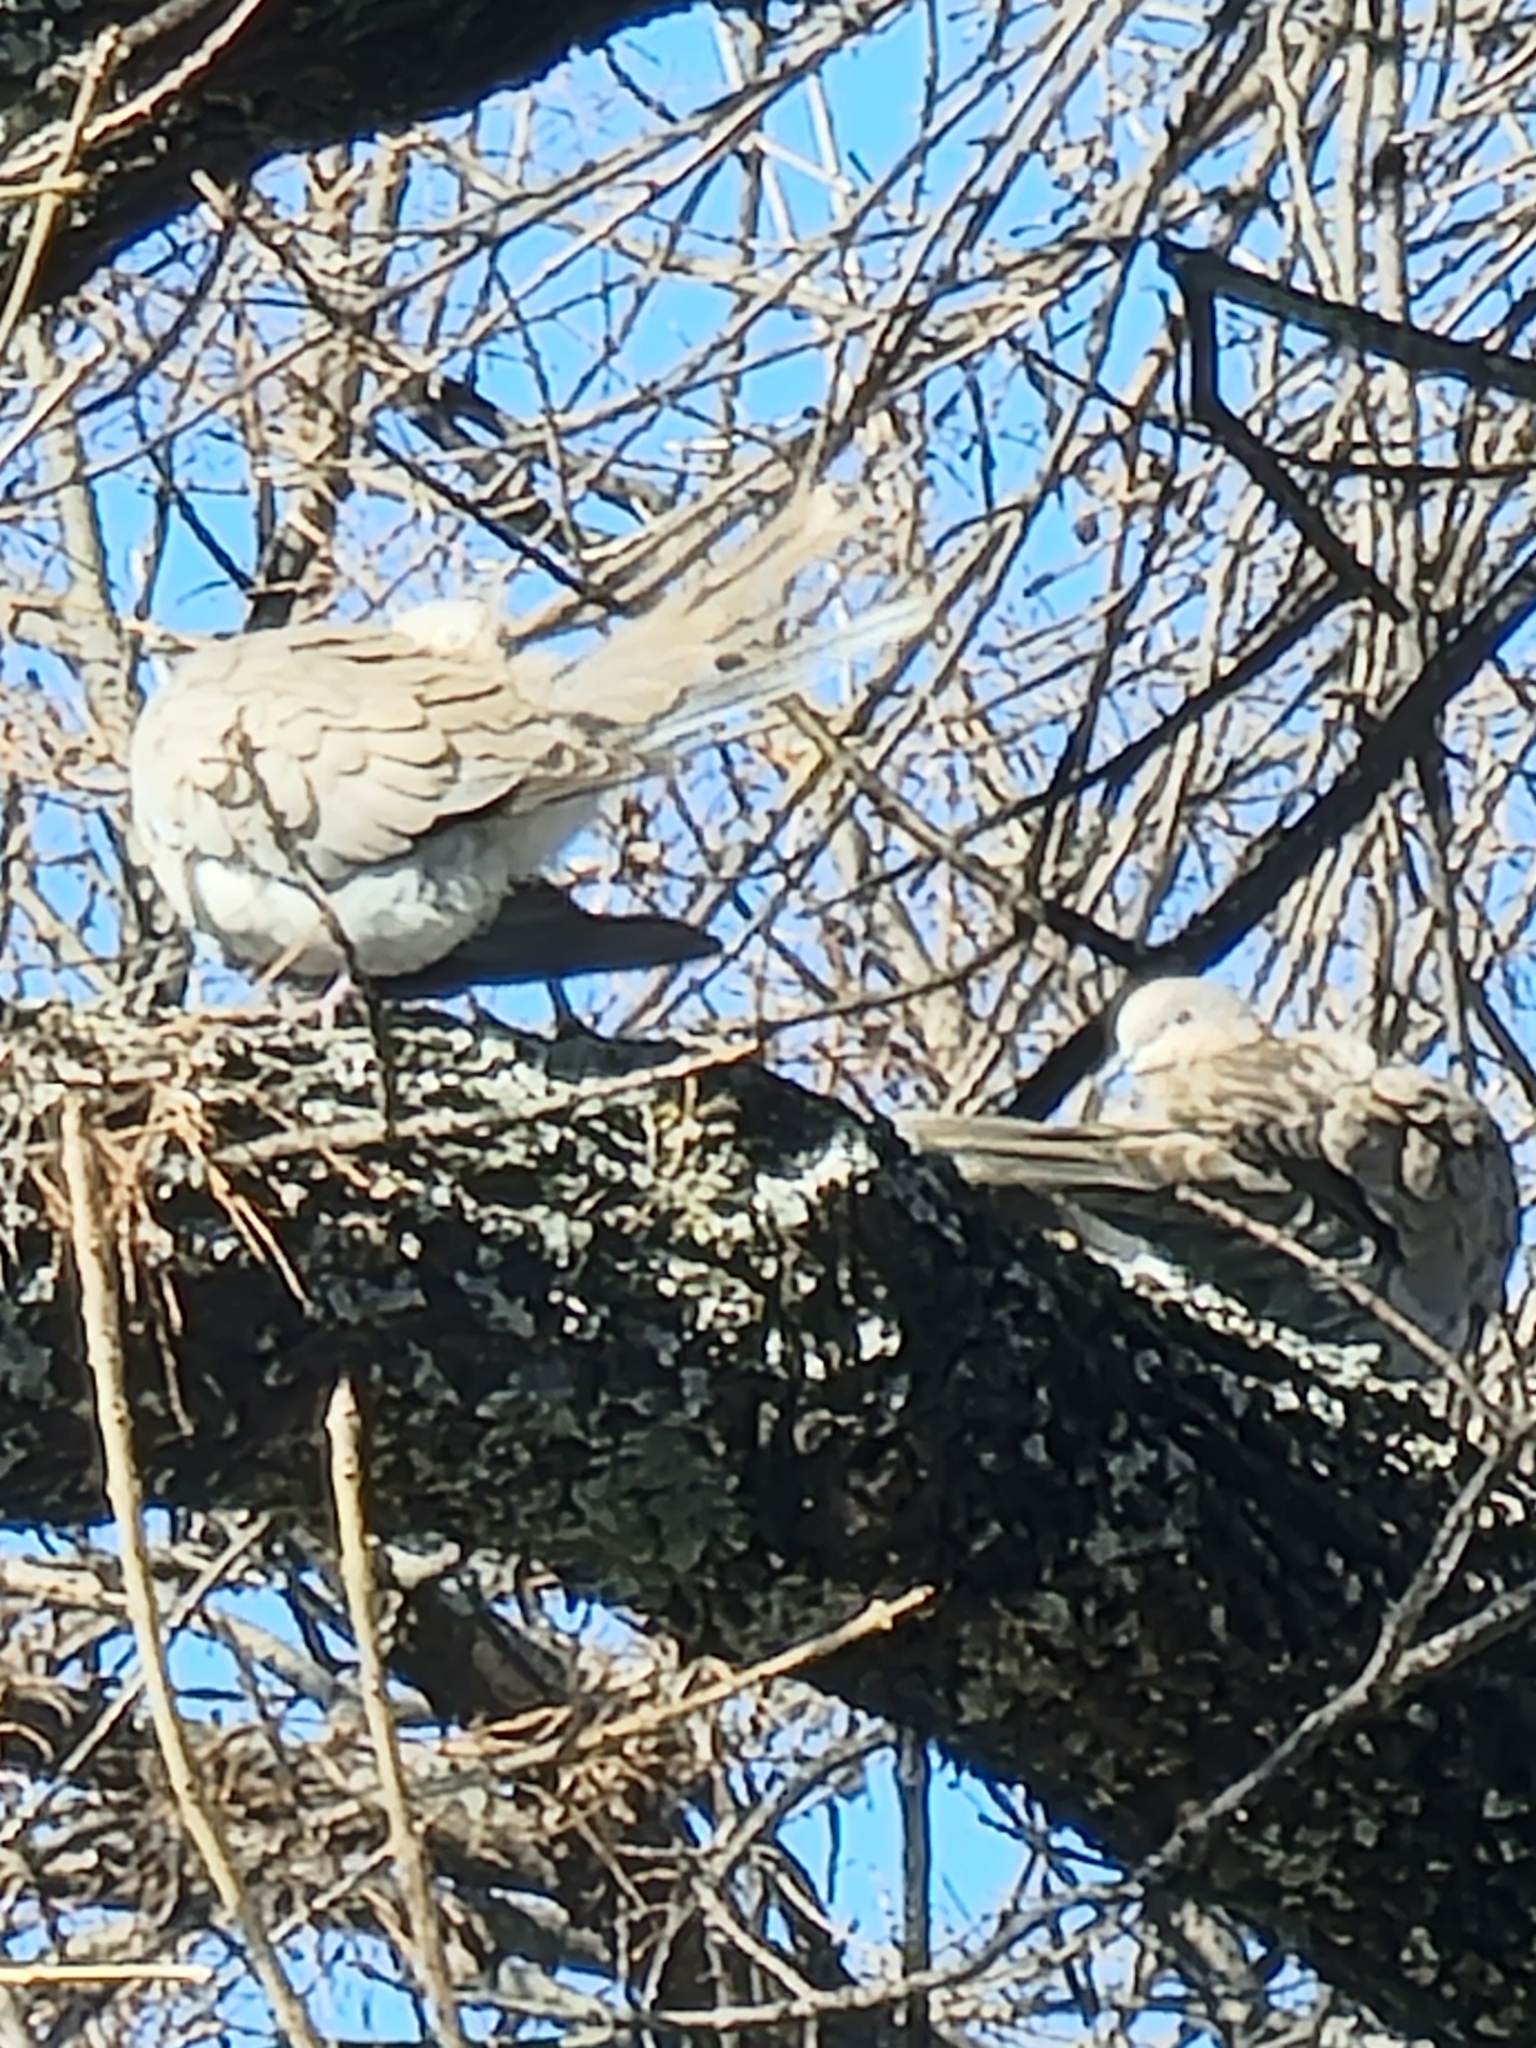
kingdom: Animalia
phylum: Chordata
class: Aves
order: Columbiformes
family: Columbidae
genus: Zenaida
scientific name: Zenaida macroura
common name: Mourning dove
